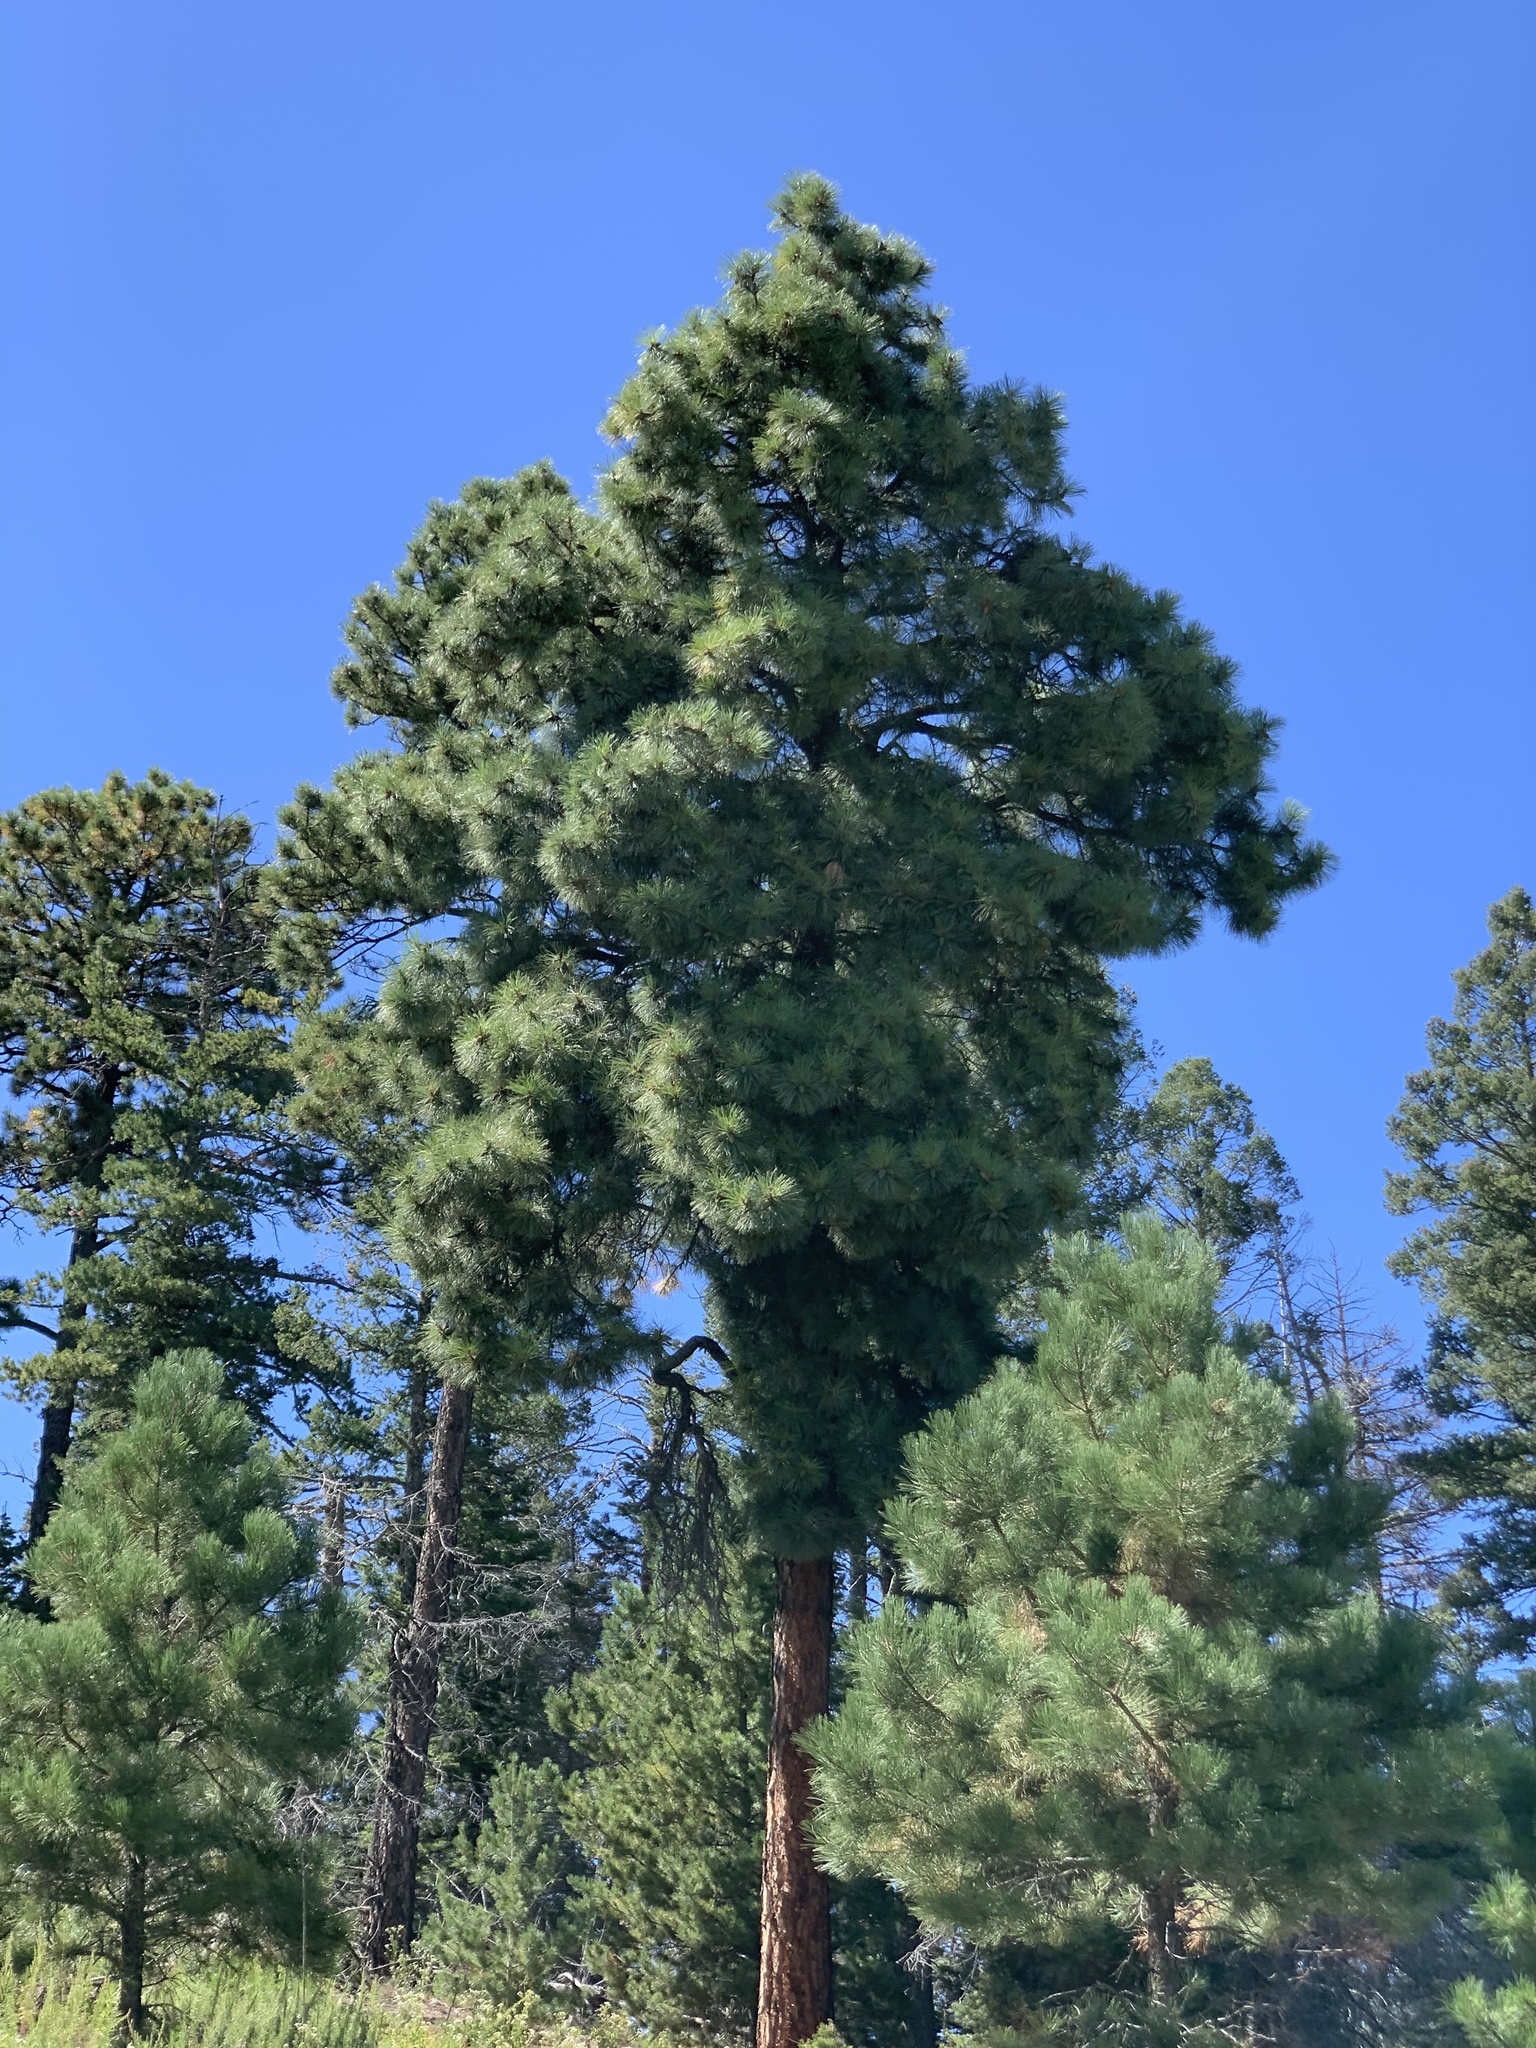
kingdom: Plantae
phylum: Tracheophyta
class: Pinopsida
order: Pinales
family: Pinaceae
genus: Pinus
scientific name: Pinus ponderosa
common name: Western yellow-pine
